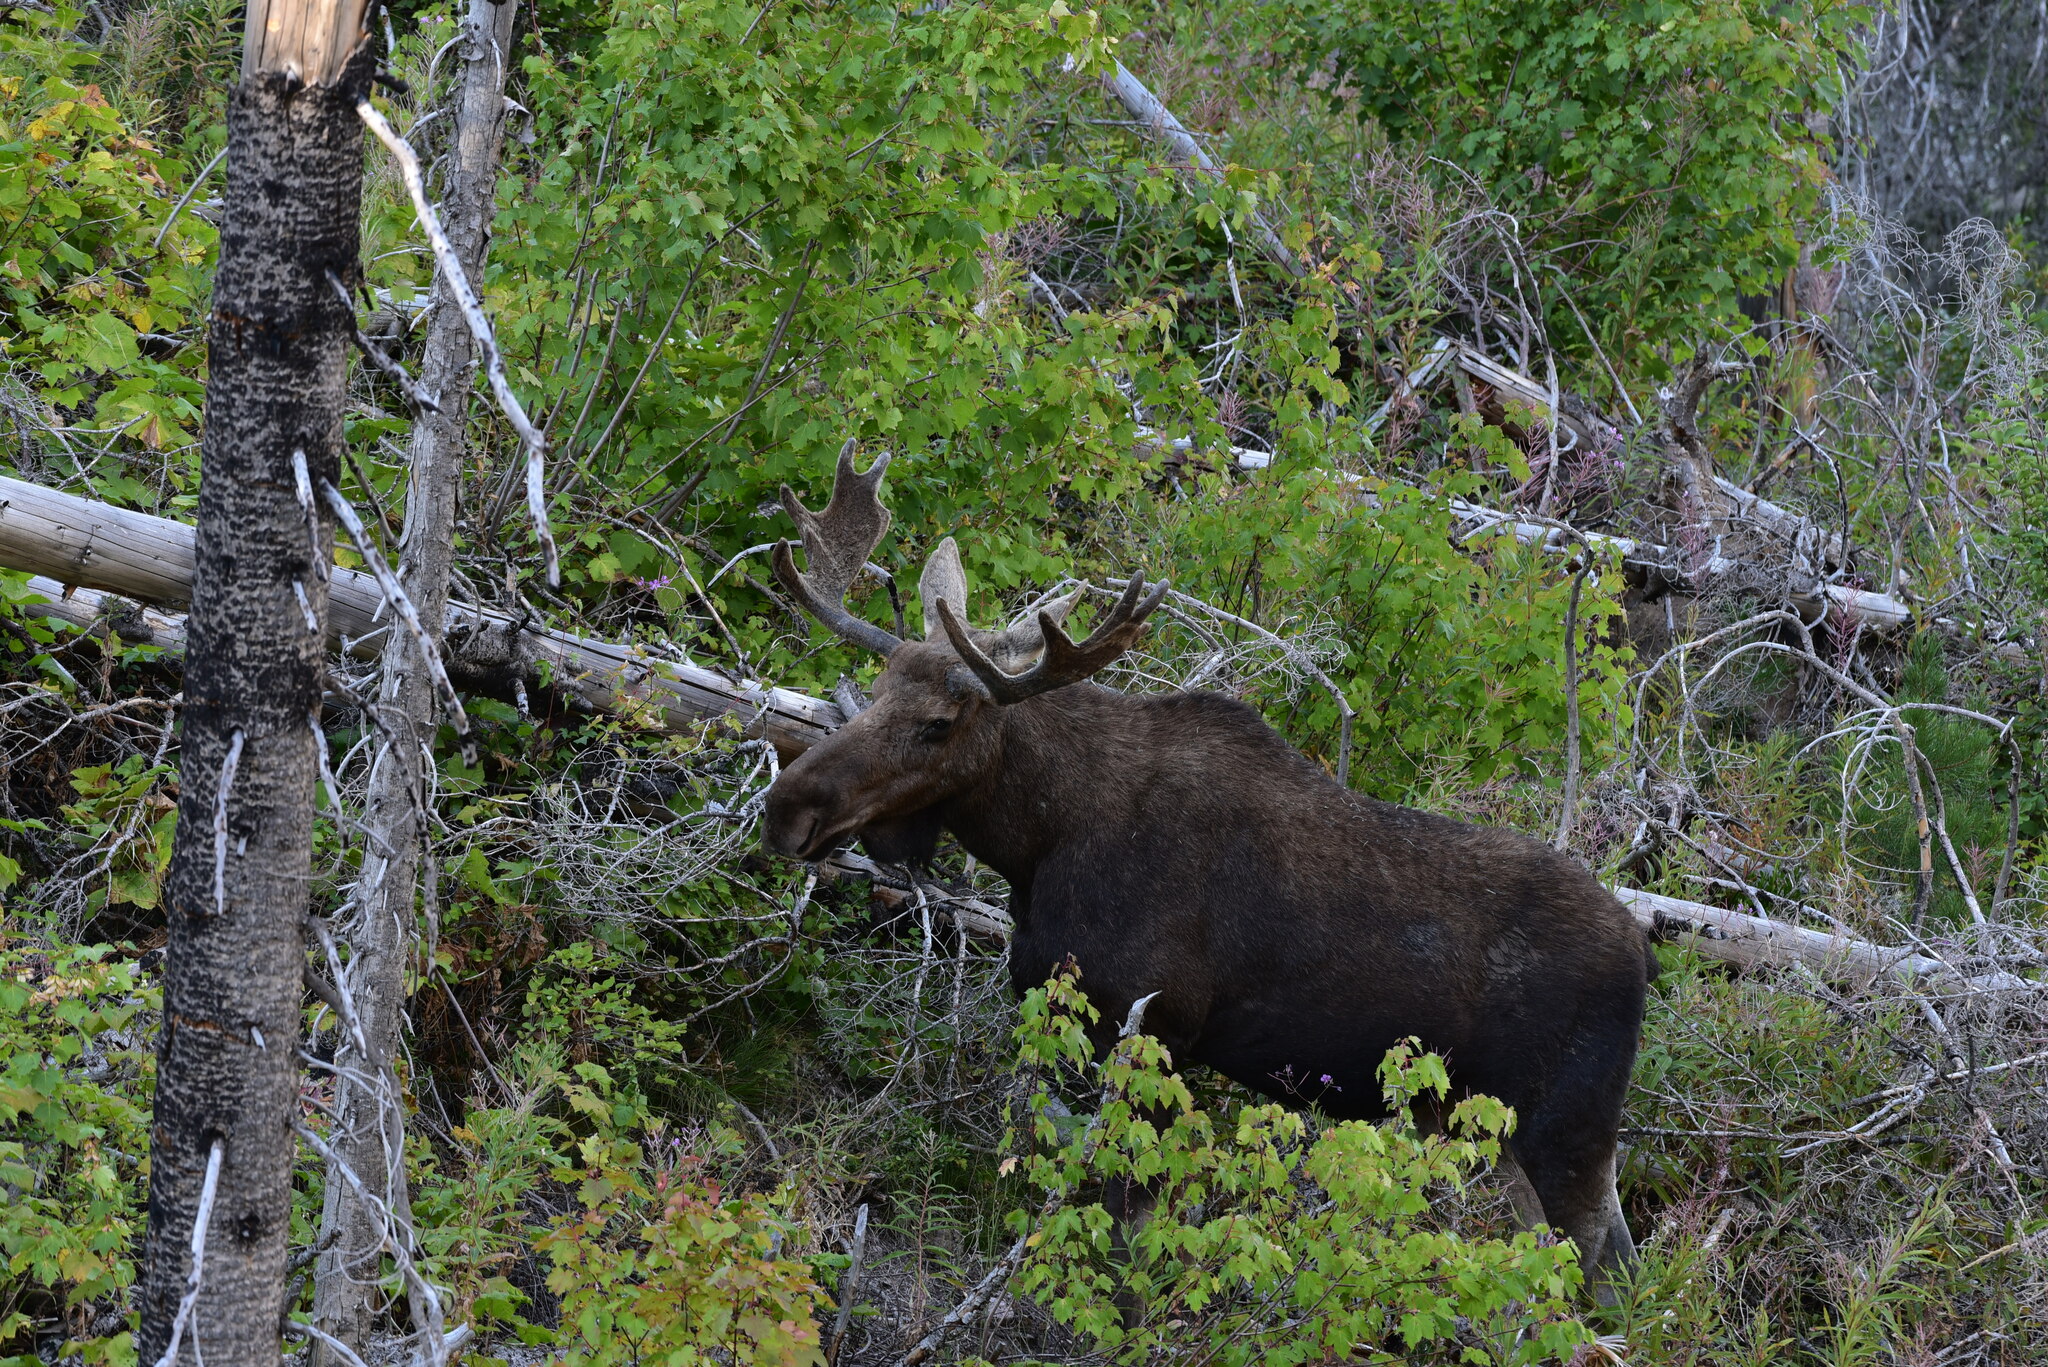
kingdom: Animalia
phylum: Chordata
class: Mammalia
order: Artiodactyla
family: Cervidae
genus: Alces
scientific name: Alces americanus
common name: Moose
